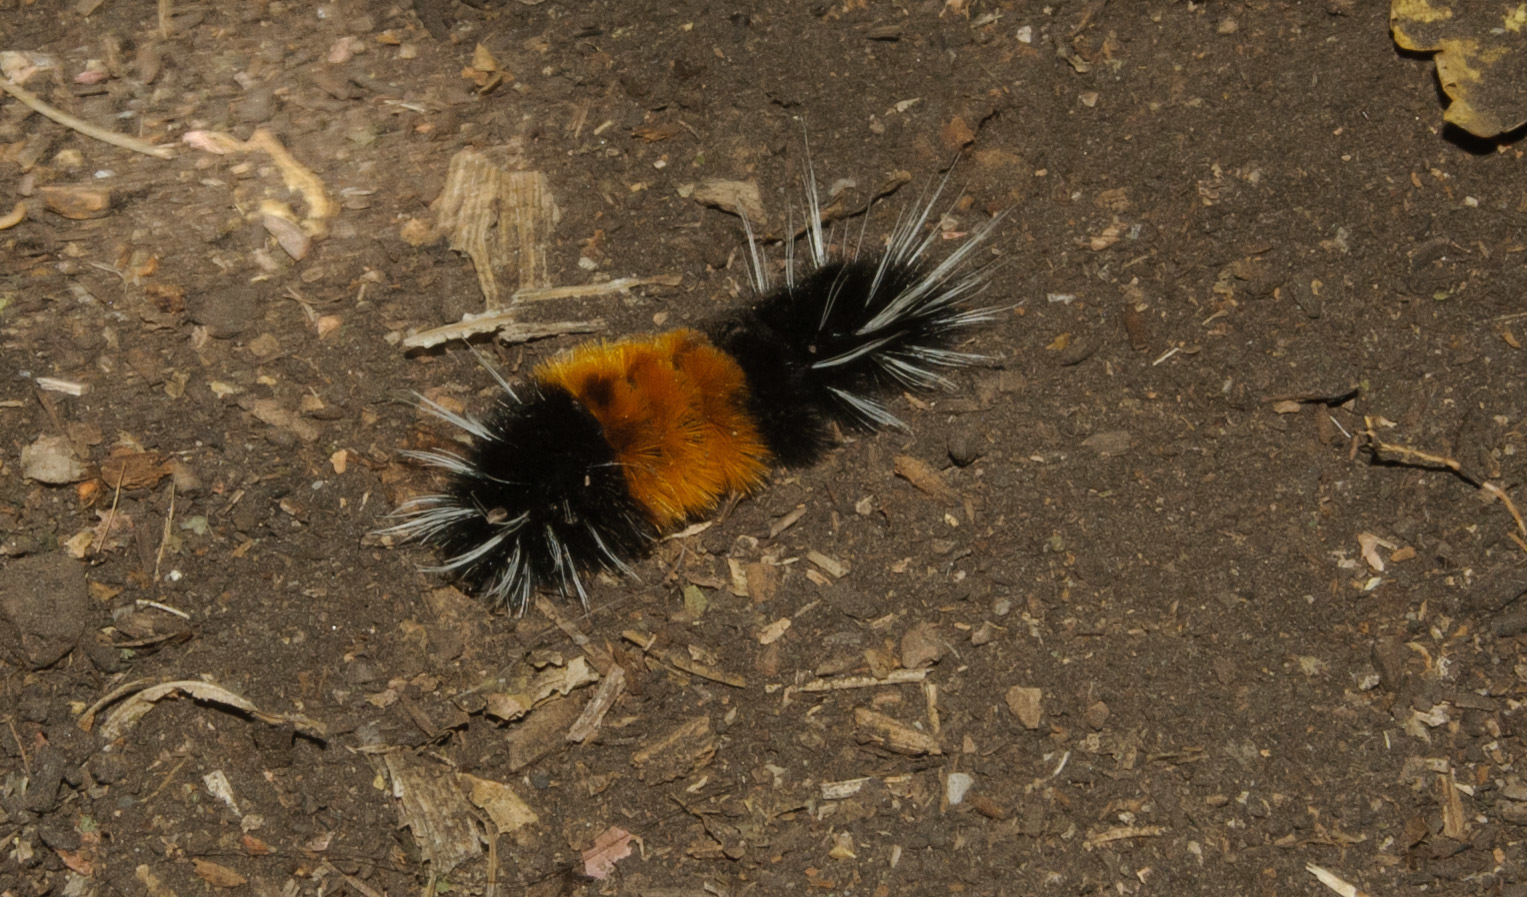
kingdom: Animalia
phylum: Arthropoda
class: Insecta
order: Lepidoptera
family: Erebidae
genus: Lophocampa
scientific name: Lophocampa maculata
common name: Spotted tussock moth
